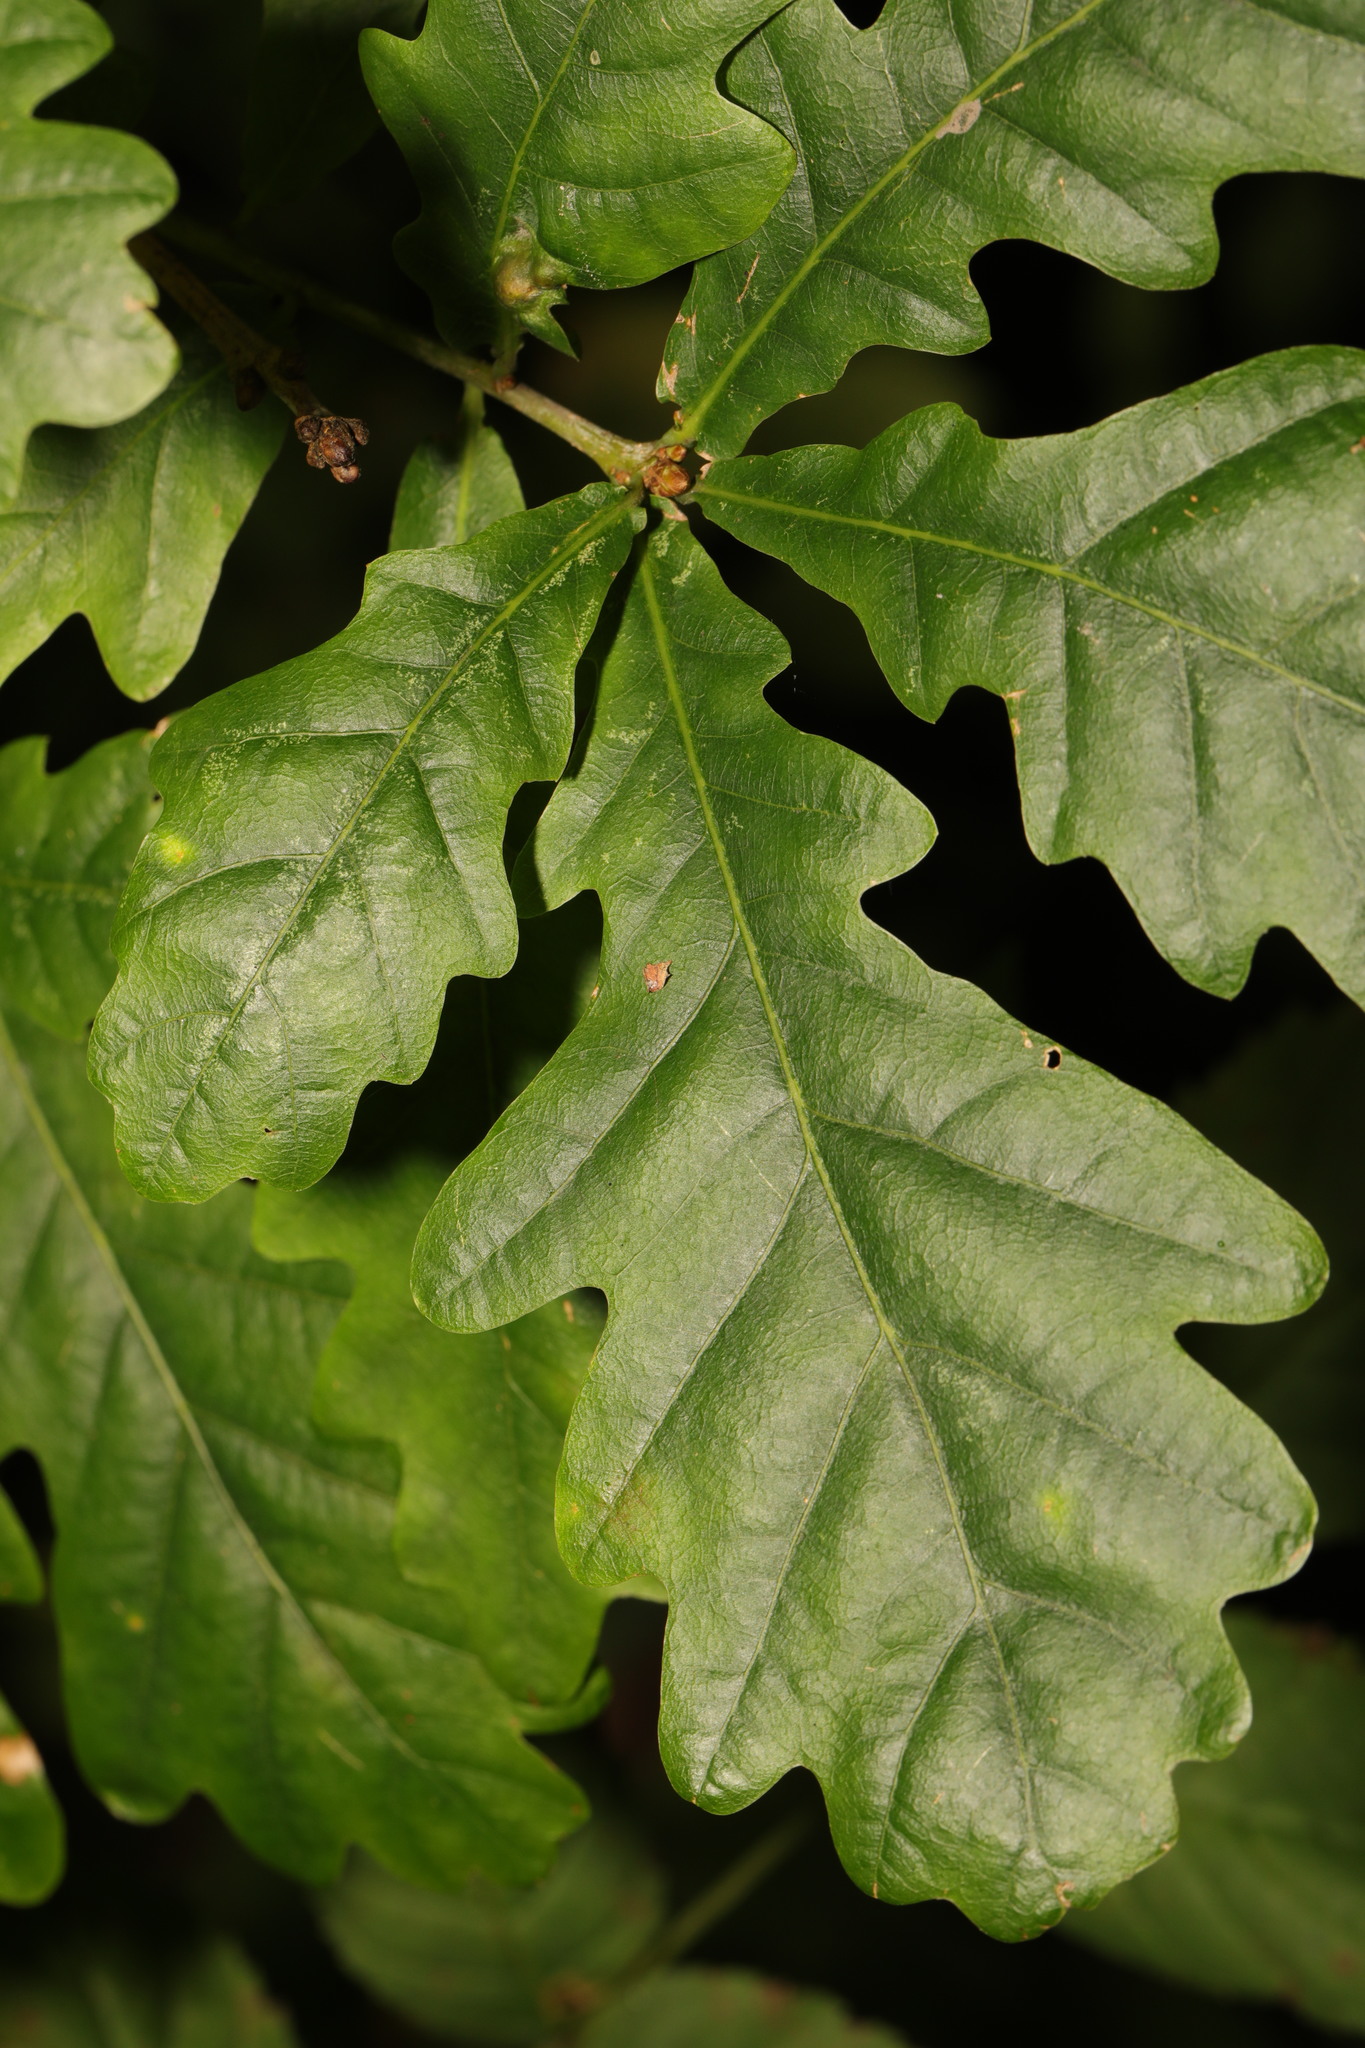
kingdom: Plantae
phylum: Tracheophyta
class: Magnoliopsida
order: Fagales
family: Fagaceae
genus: Quercus
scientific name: Quercus robur
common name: Pedunculate oak
